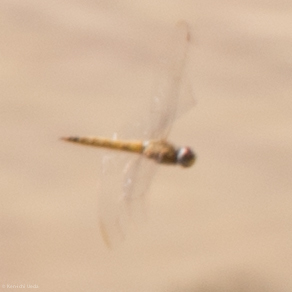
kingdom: Animalia
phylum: Arthropoda
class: Insecta
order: Odonata
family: Libellulidae
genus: Pantala
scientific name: Pantala flavescens
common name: Wandering glider
